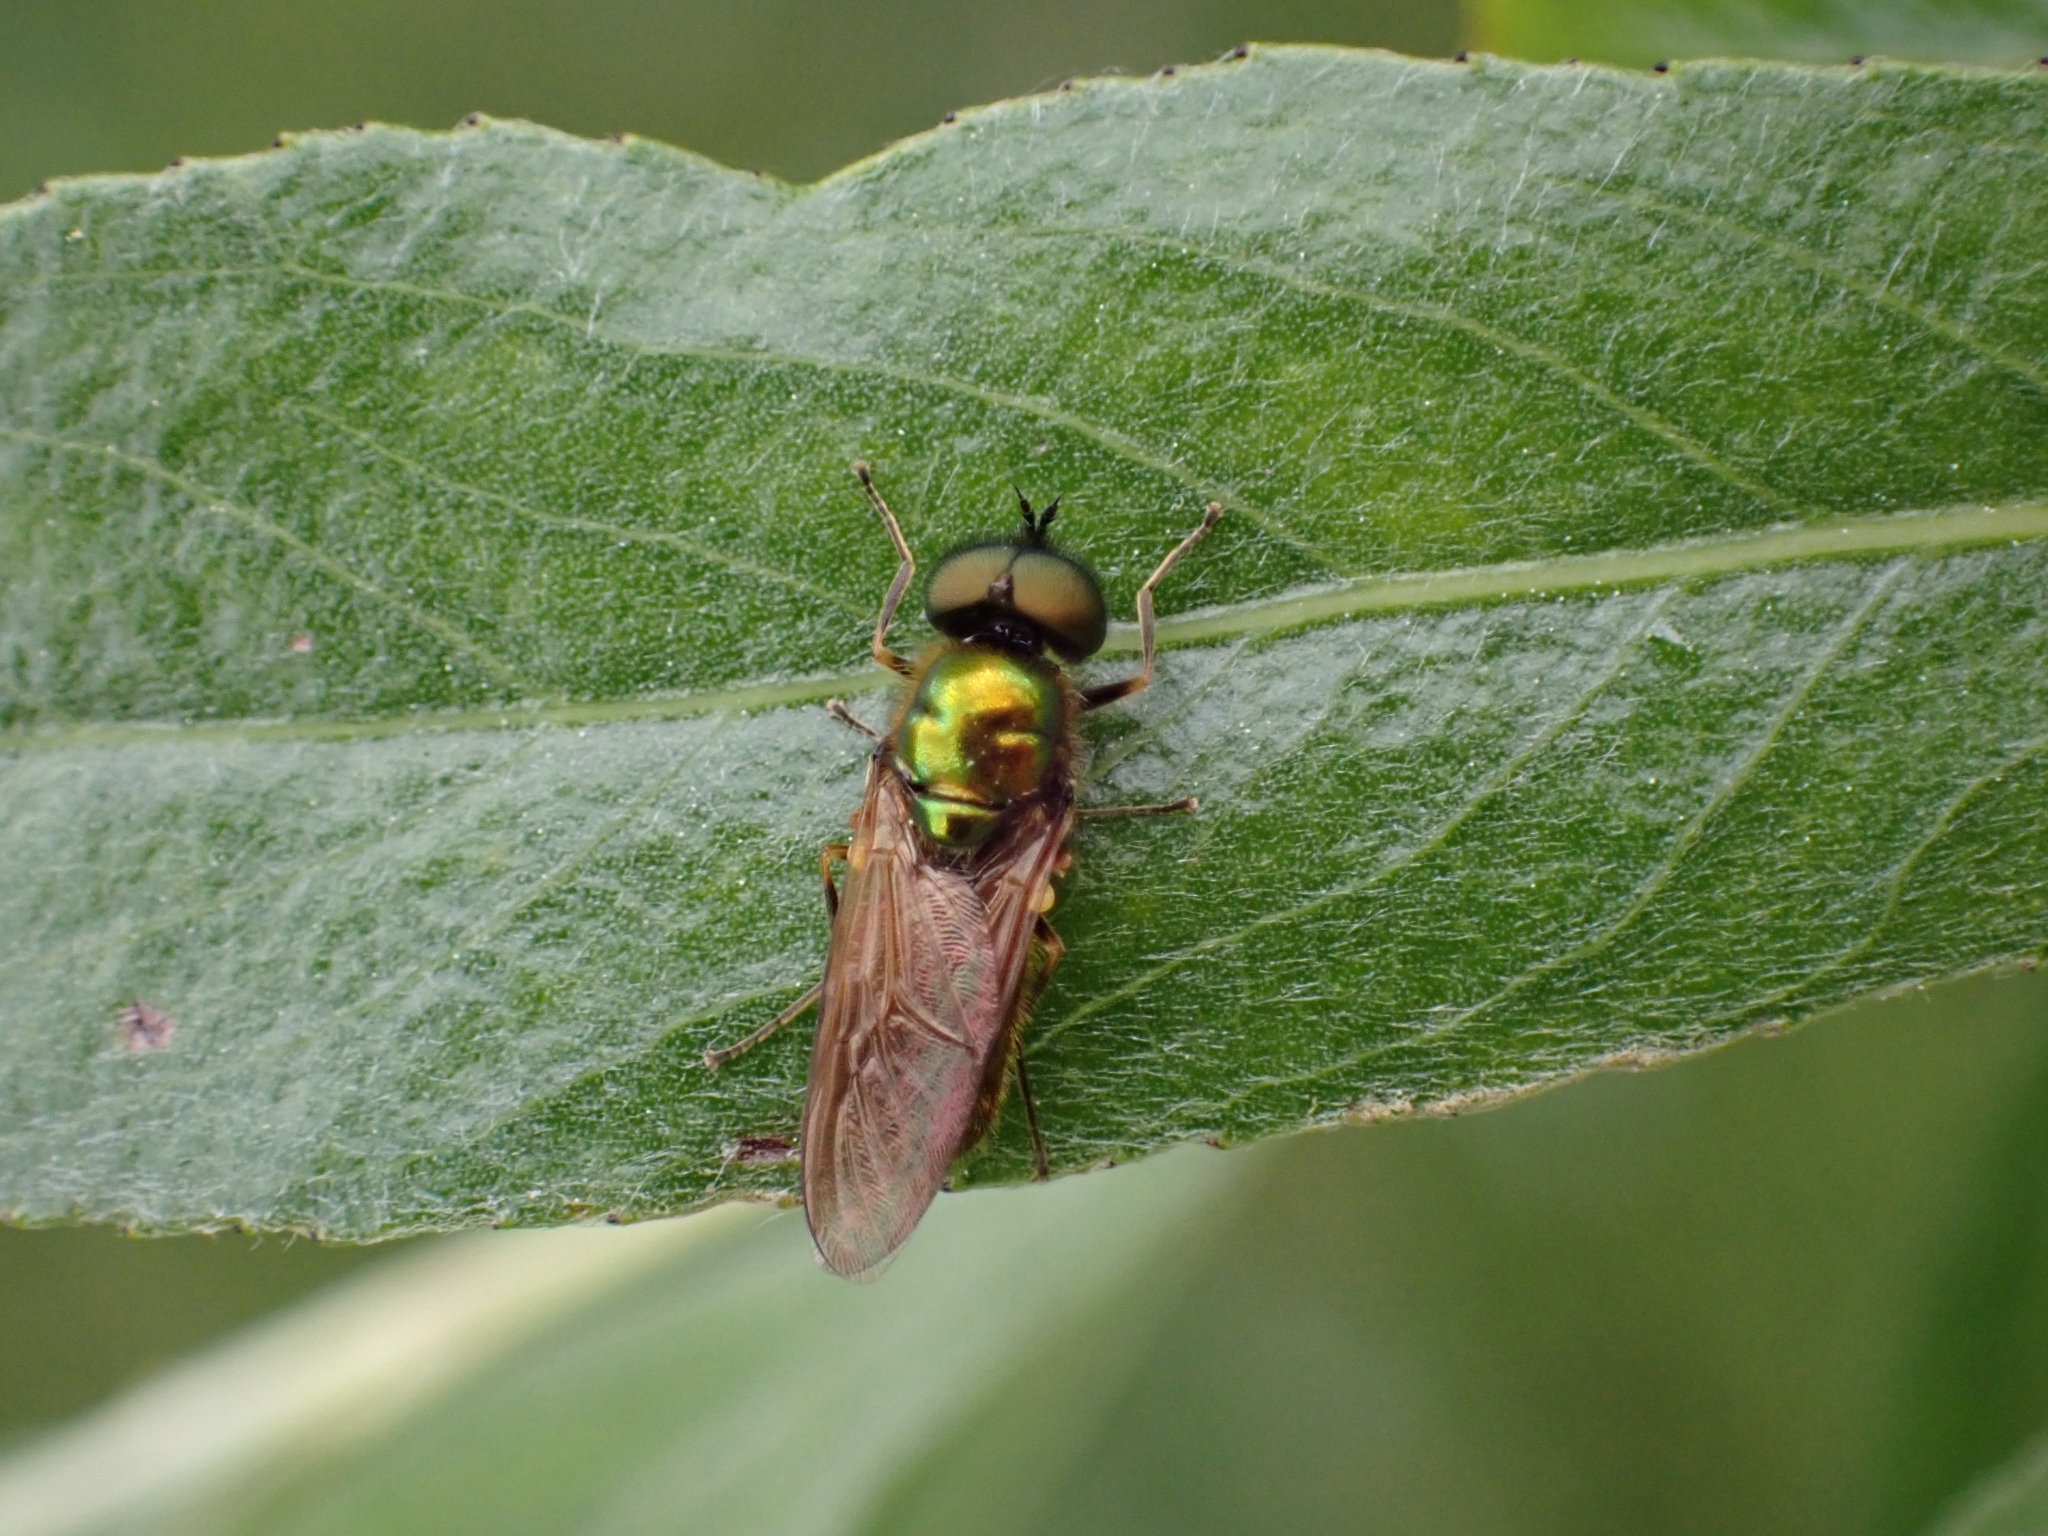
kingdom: Animalia
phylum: Arthropoda
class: Insecta
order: Diptera
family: Stratiomyidae
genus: Chloromyia
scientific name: Chloromyia formosa
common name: Soldier fly
